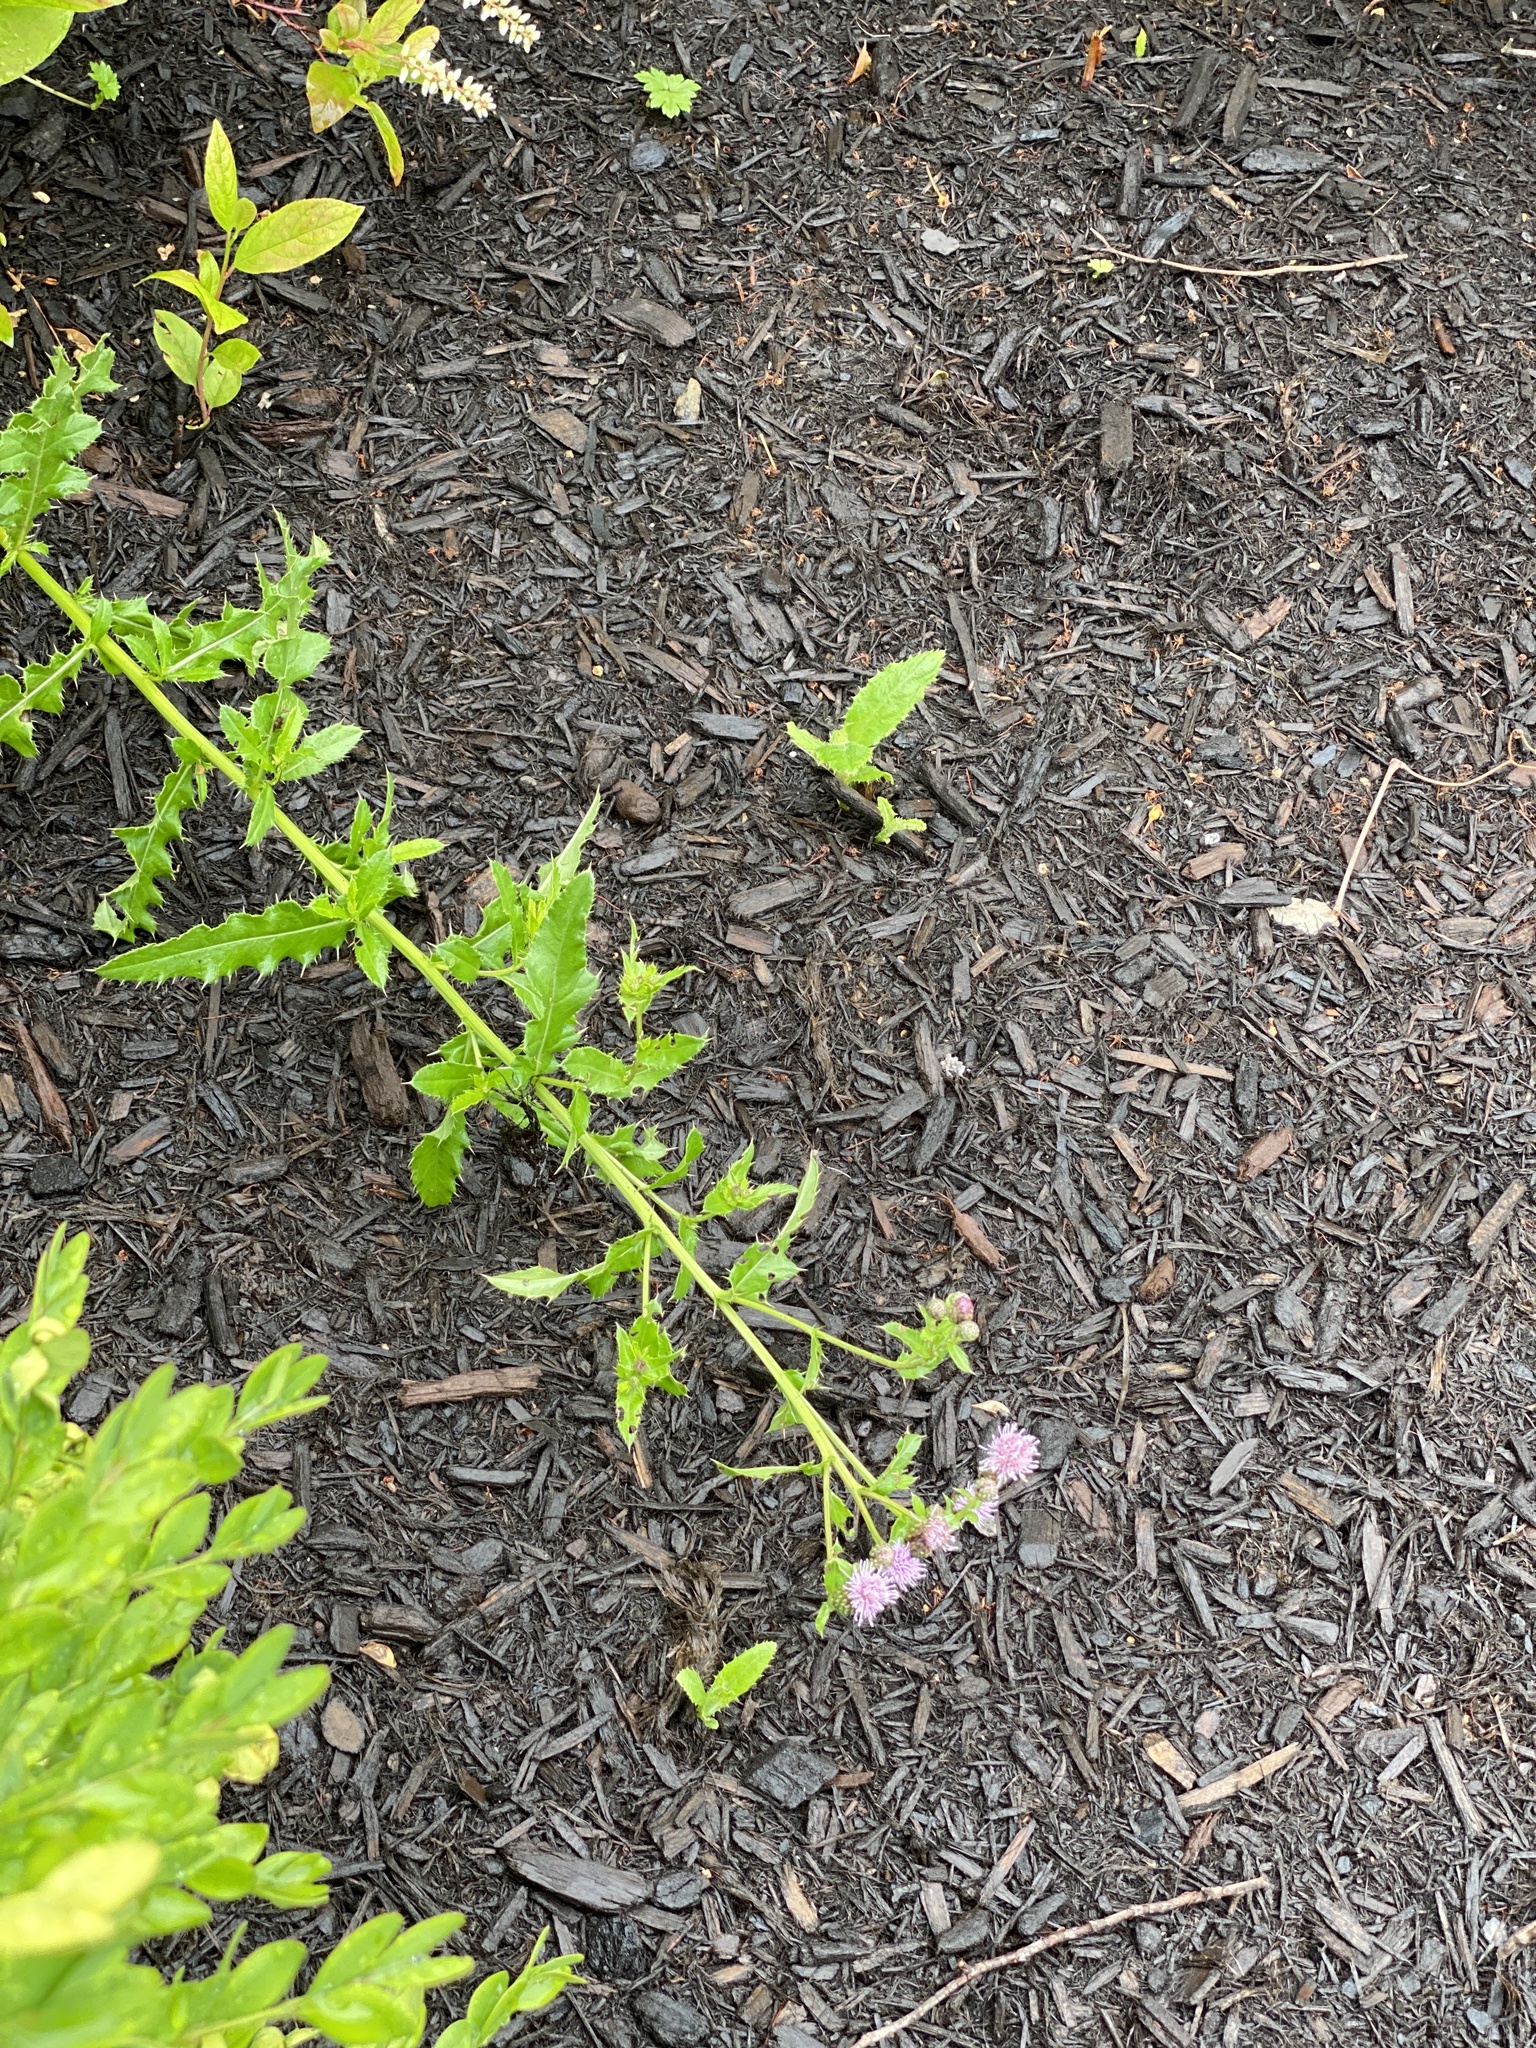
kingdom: Plantae
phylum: Tracheophyta
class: Magnoliopsida
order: Asterales
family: Asteraceae
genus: Cirsium
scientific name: Cirsium arvense
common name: Creeping thistle
